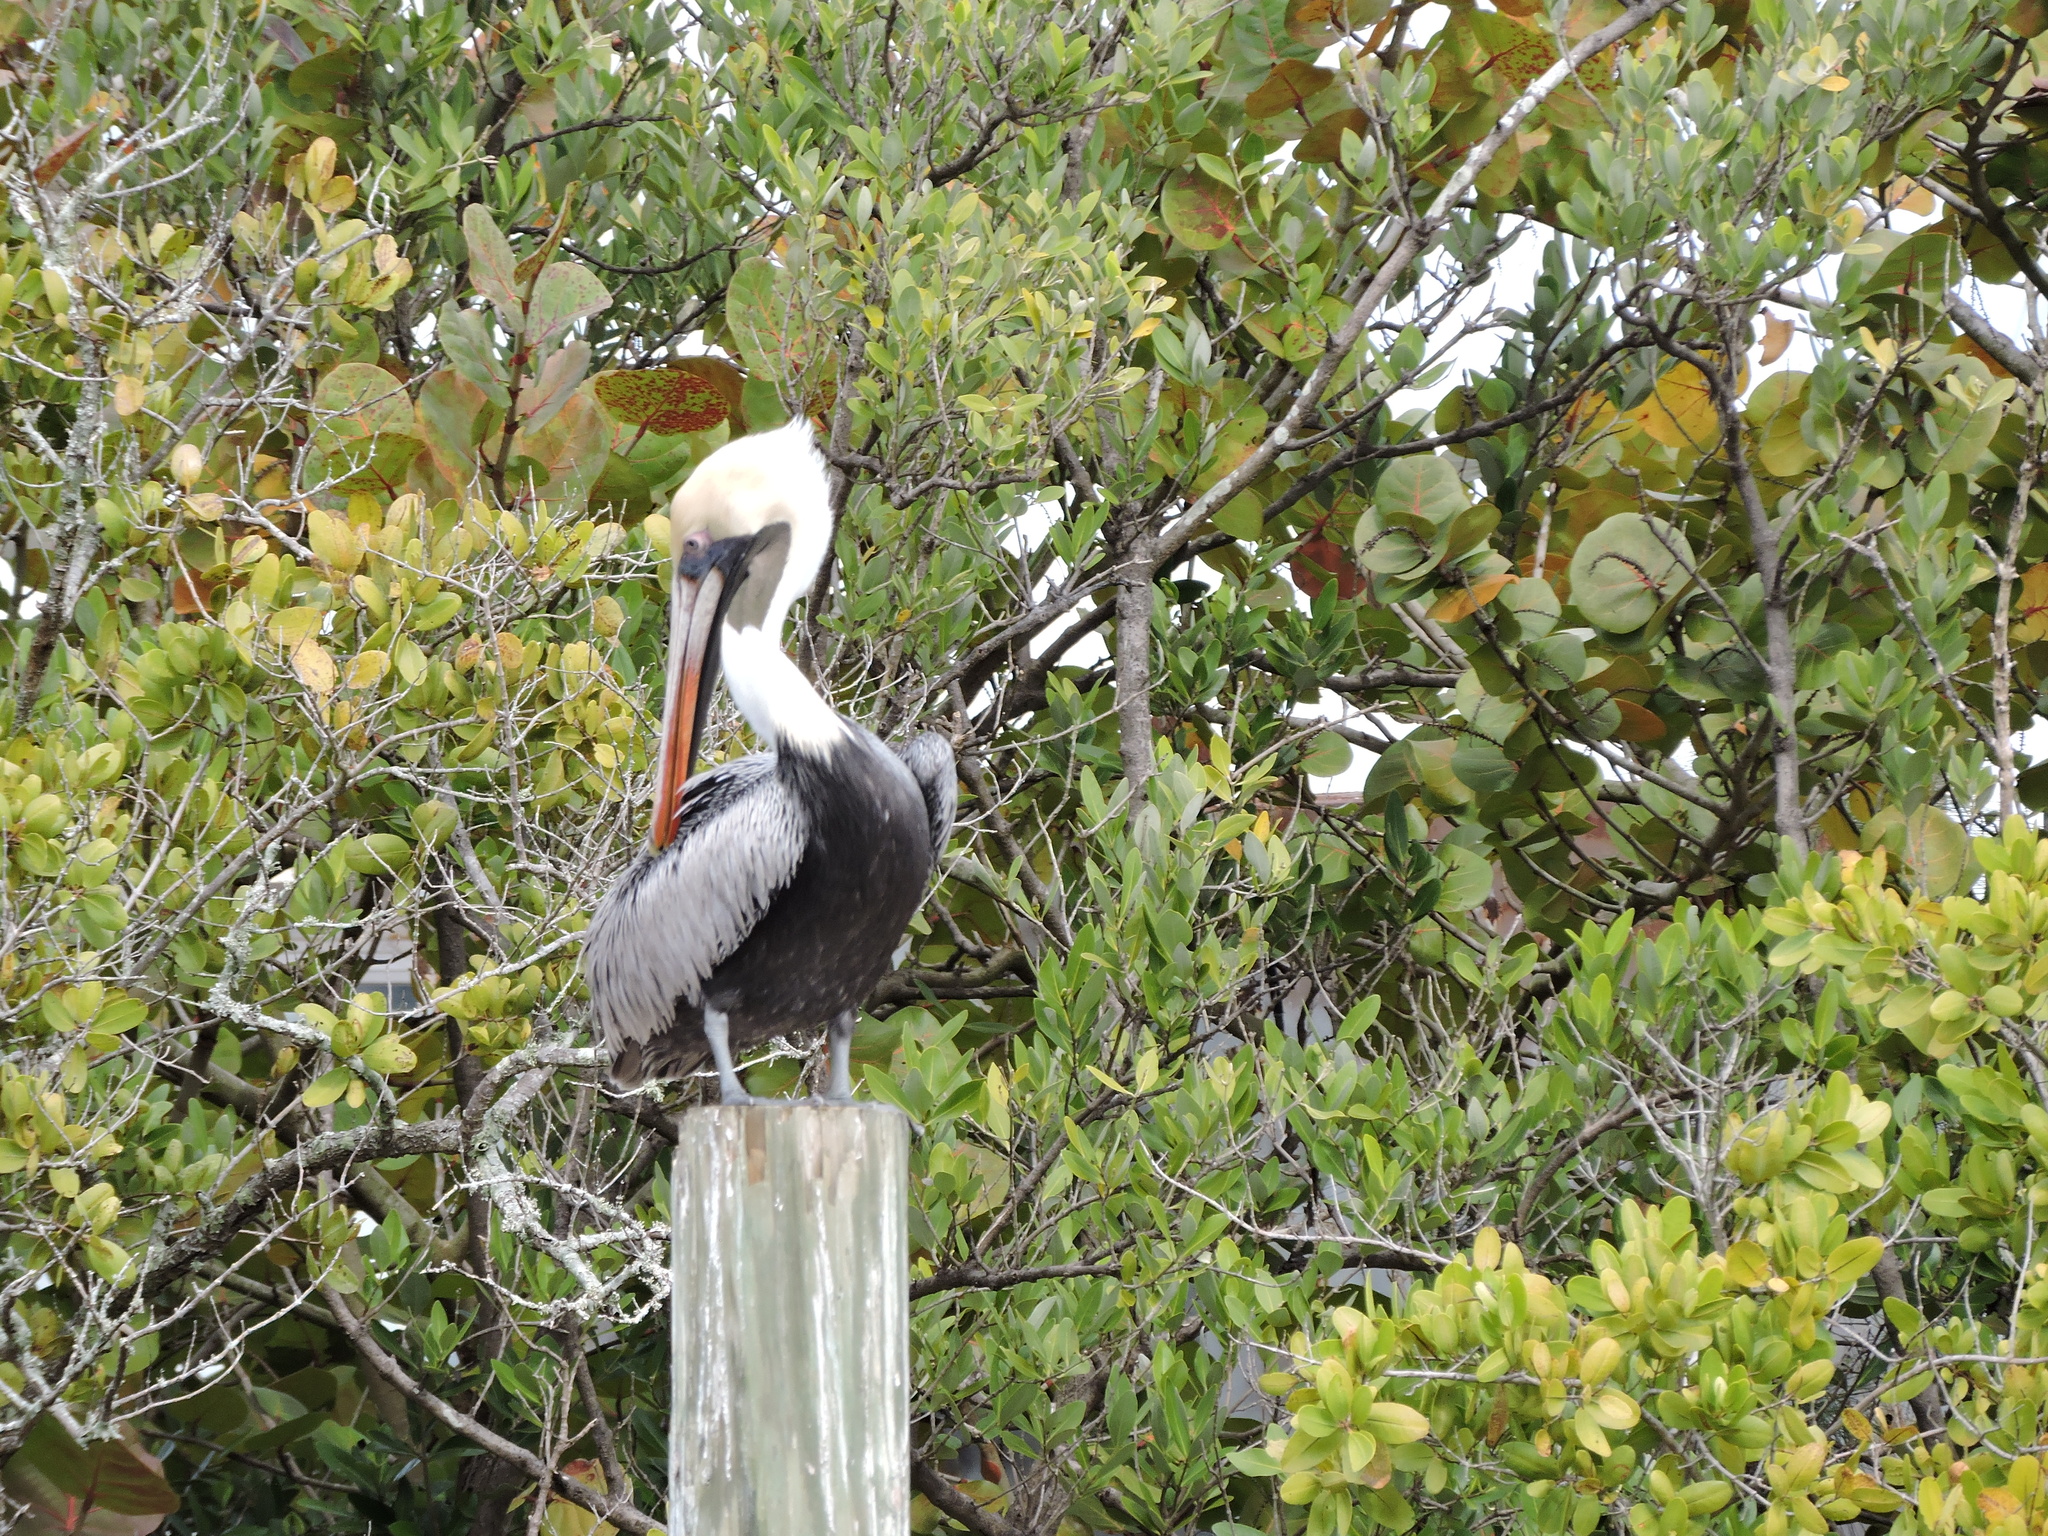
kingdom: Animalia
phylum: Chordata
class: Aves
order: Pelecaniformes
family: Pelecanidae
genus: Pelecanus
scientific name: Pelecanus occidentalis
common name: Brown pelican
